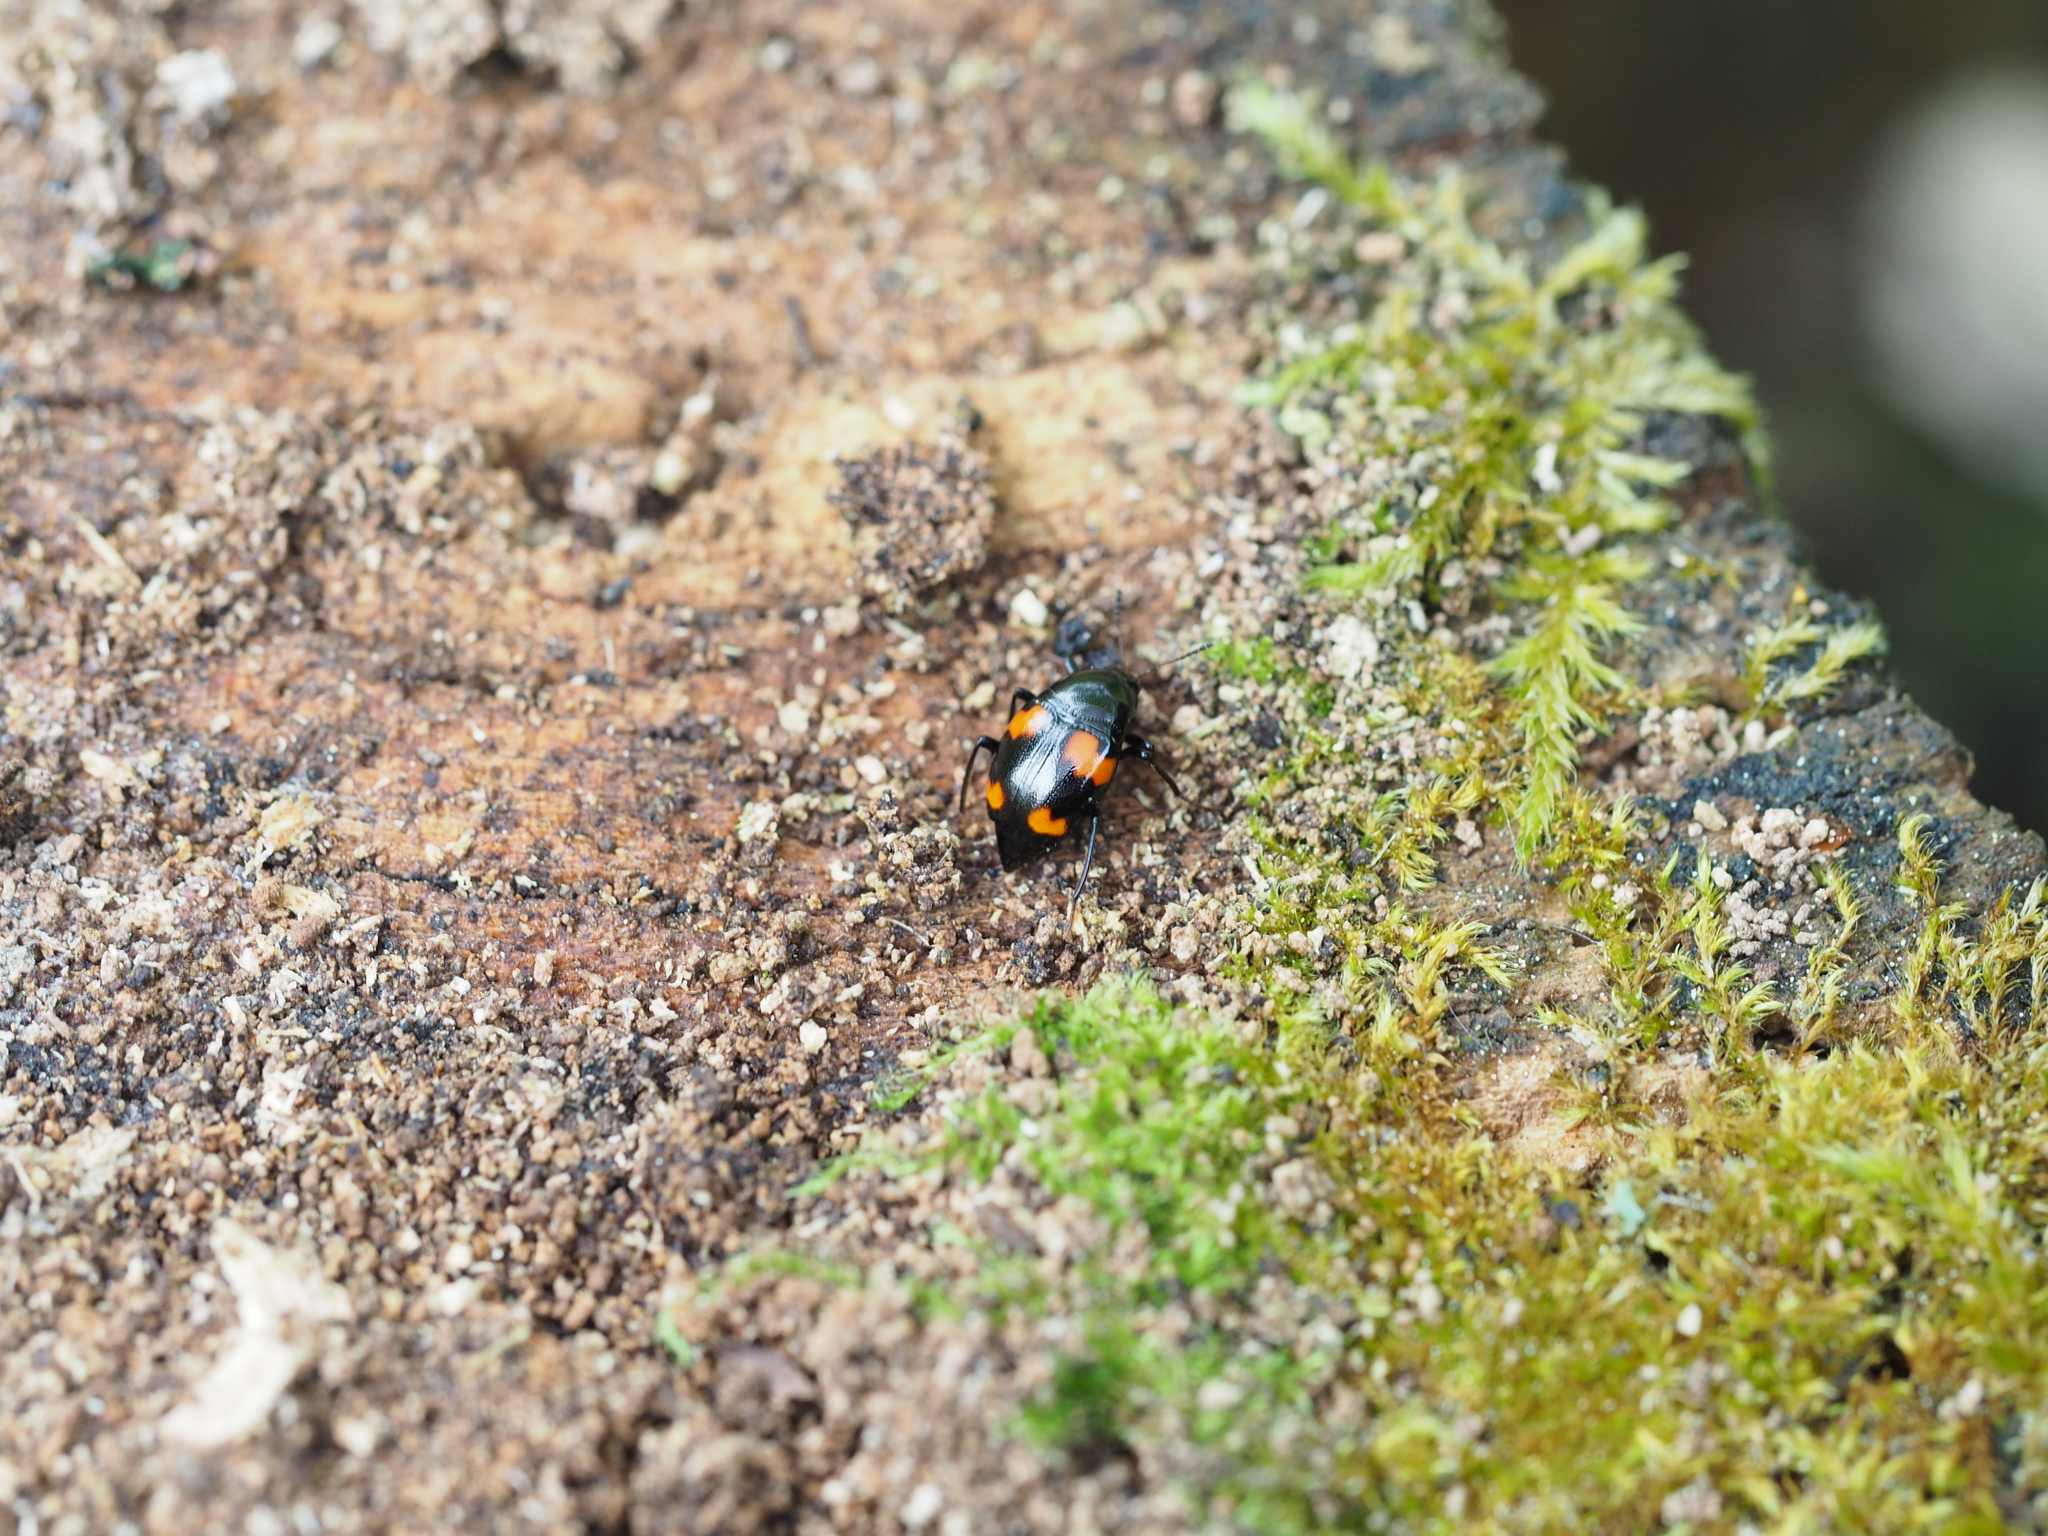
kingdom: Animalia
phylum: Arthropoda
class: Insecta
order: Coleoptera
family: Staphylinidae
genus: Scaphidium
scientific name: Scaphidium quadrimaculatum
